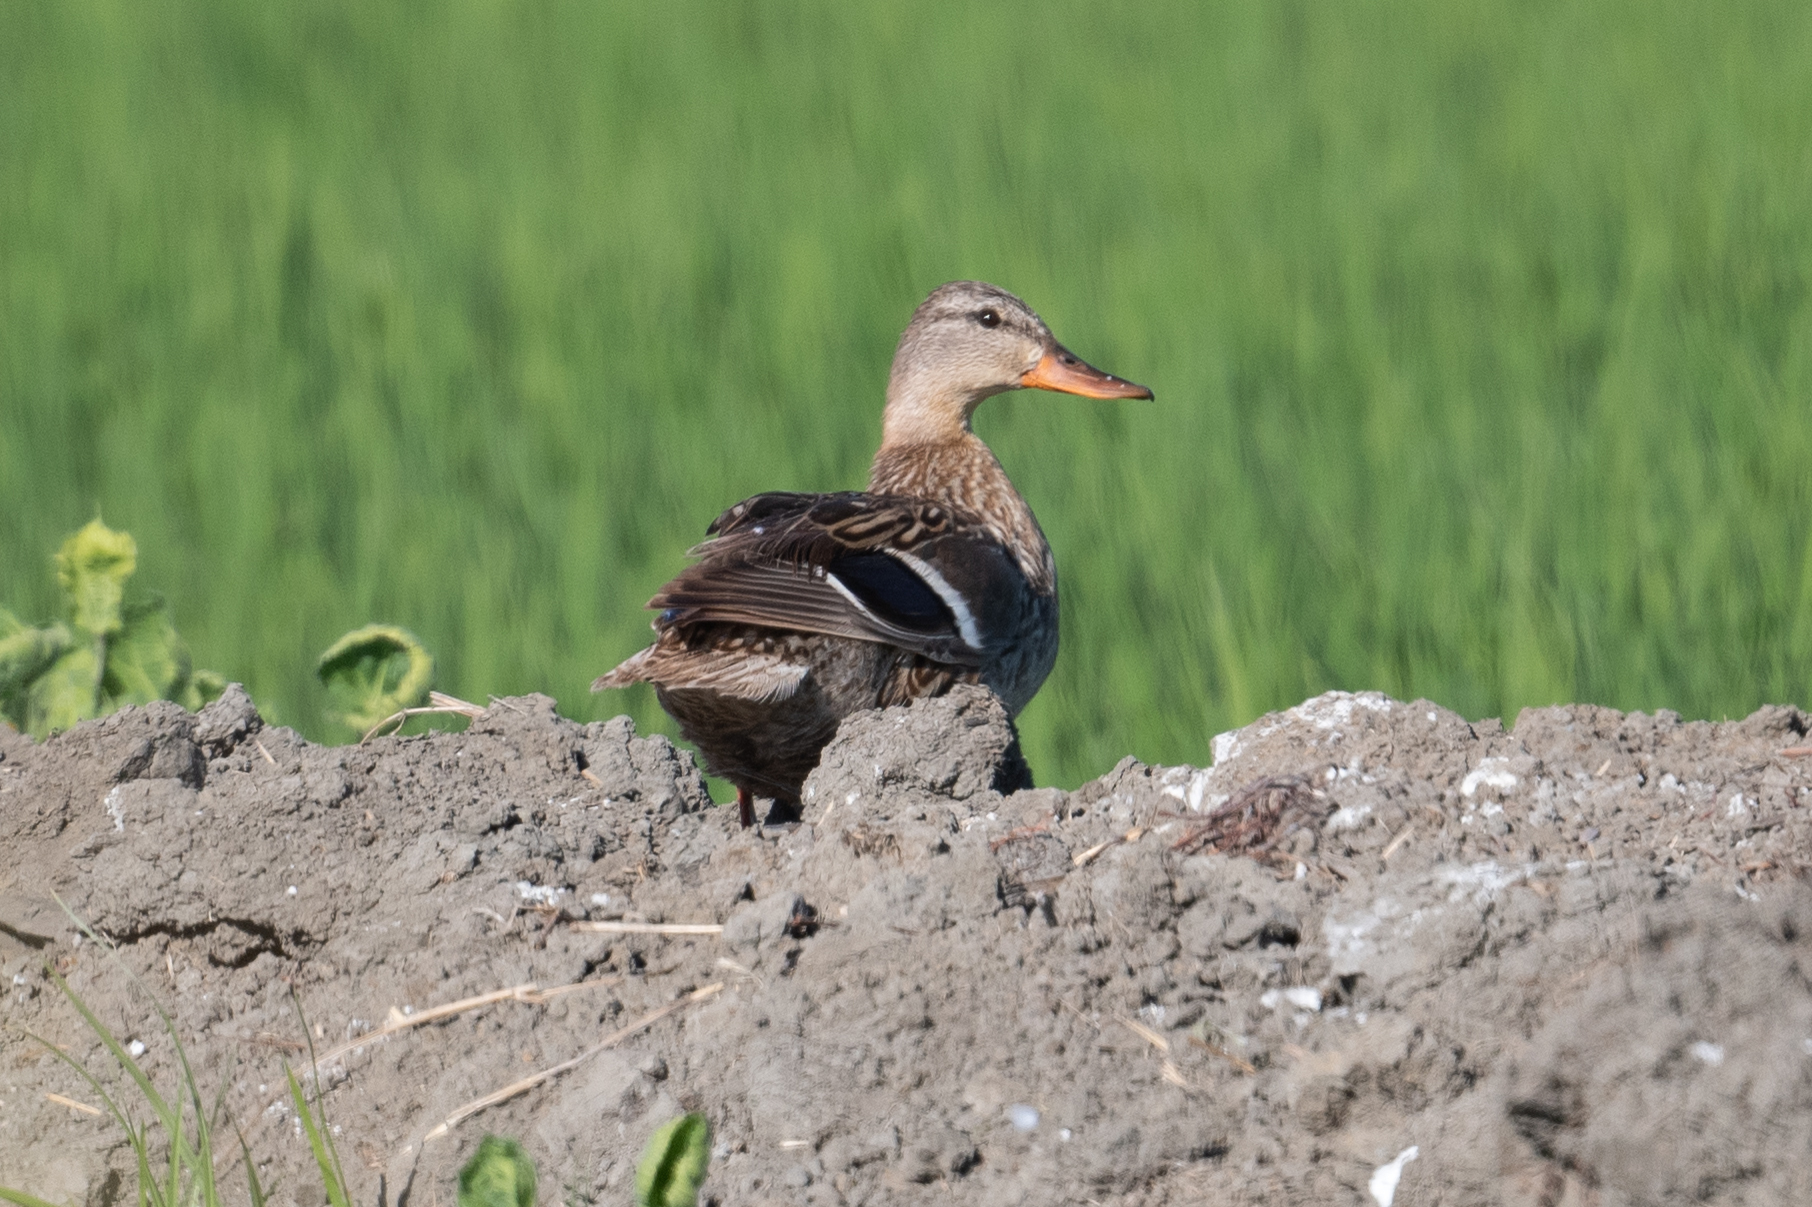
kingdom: Animalia
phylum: Chordata
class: Aves
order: Anseriformes
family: Anatidae
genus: Anas
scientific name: Anas platyrhynchos
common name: Mallard
